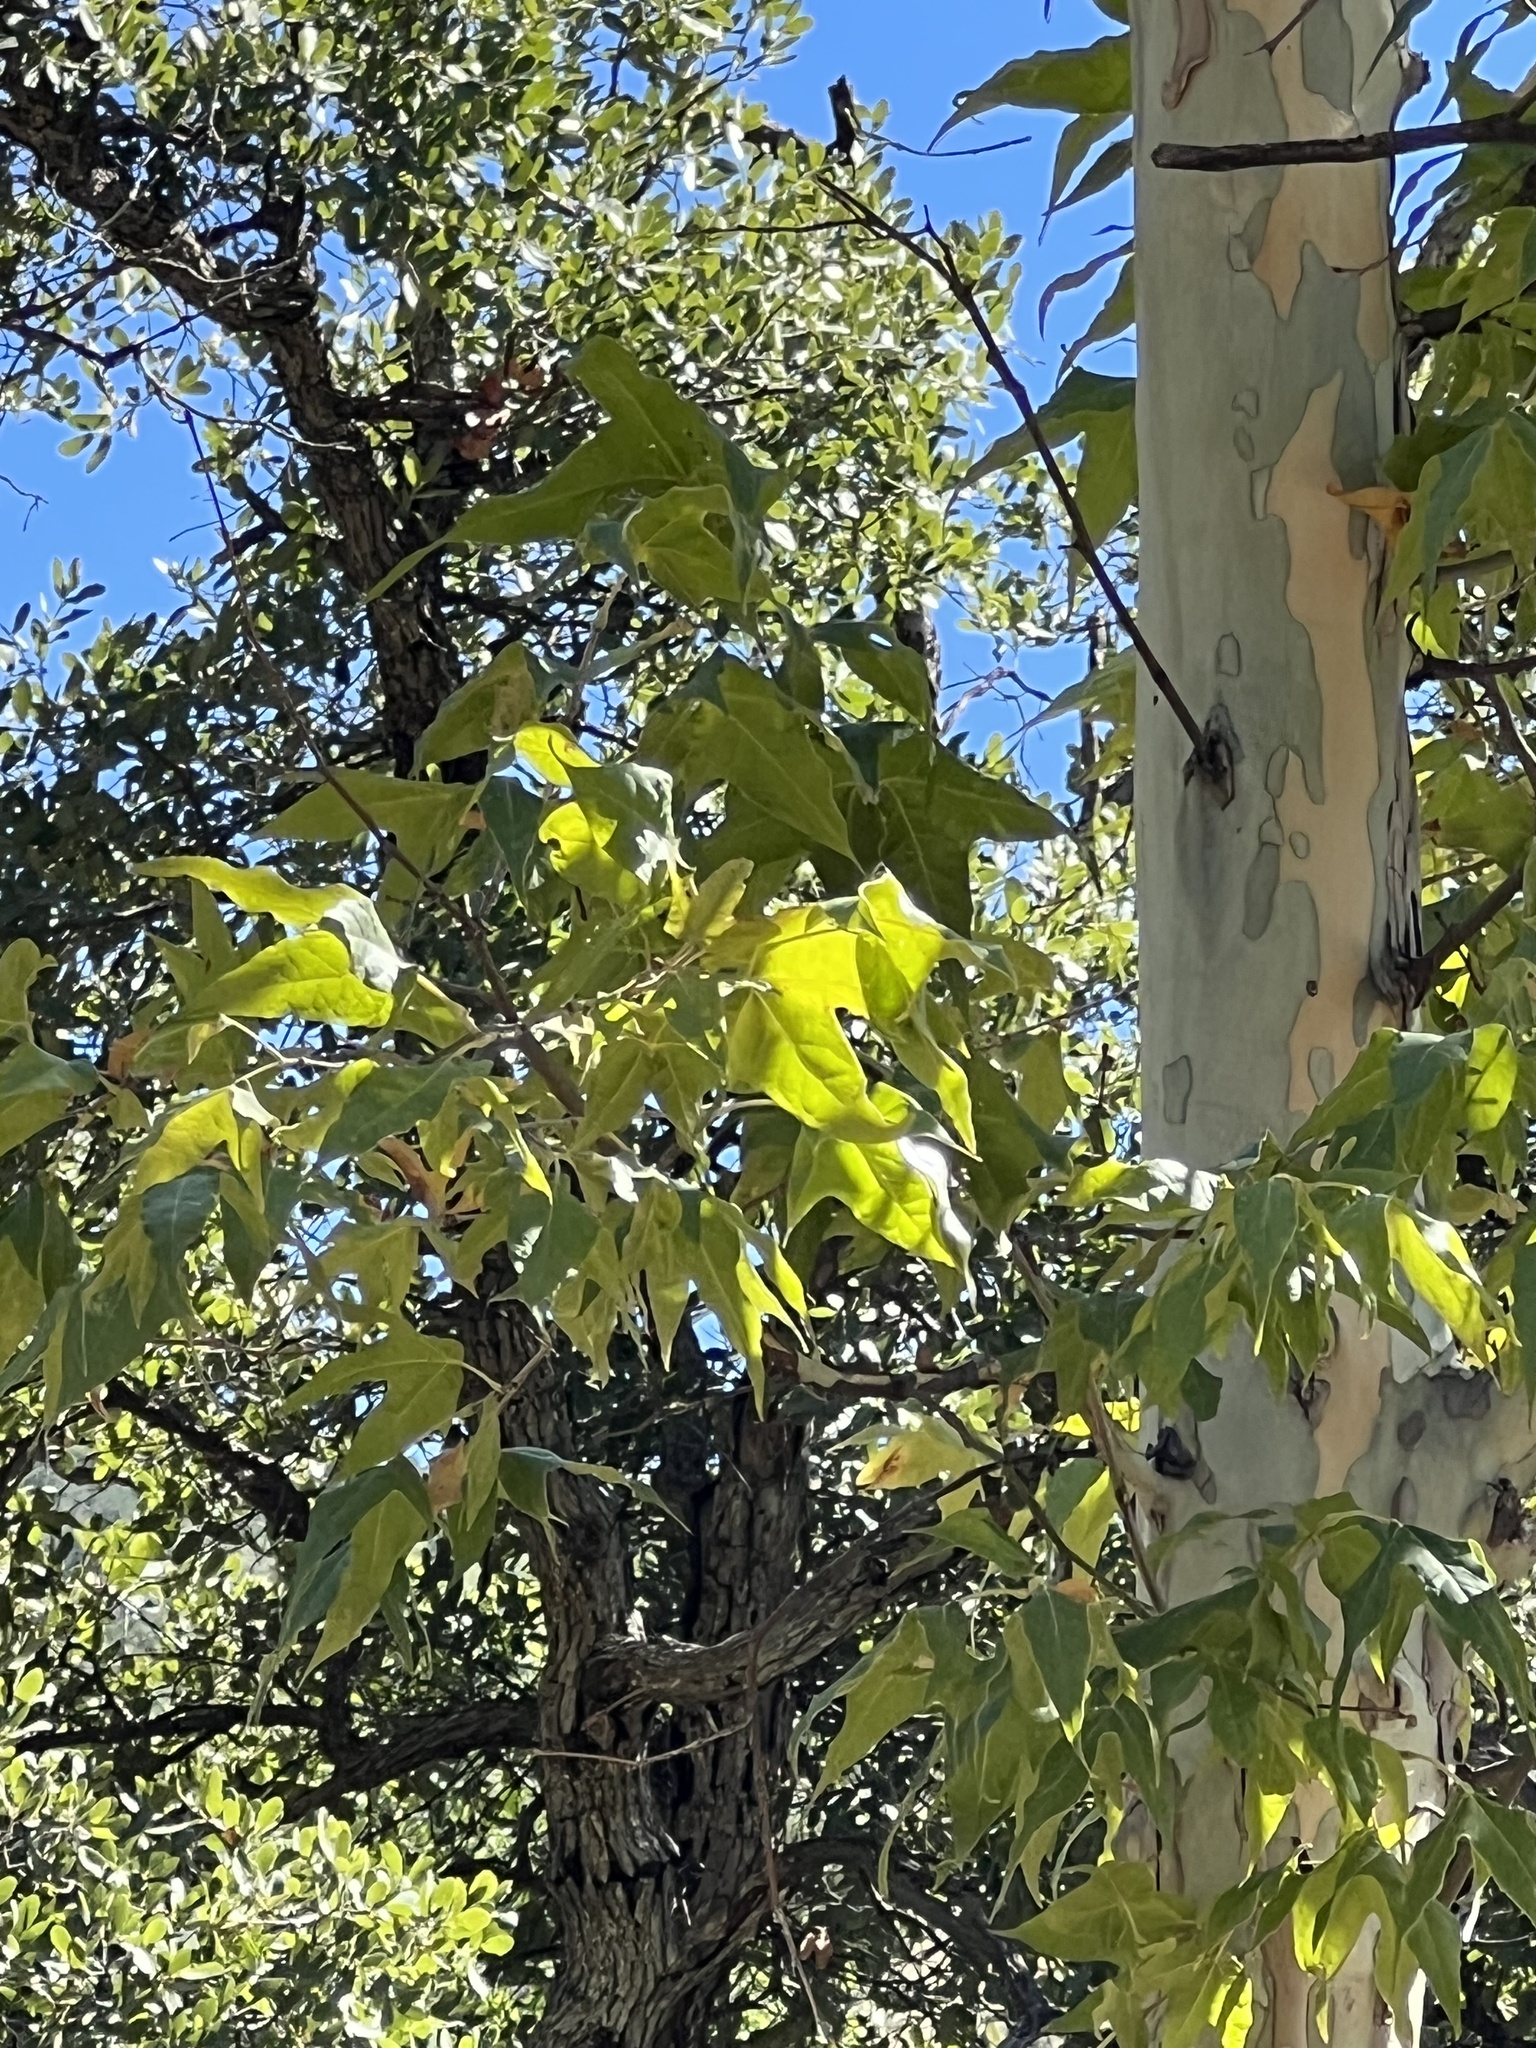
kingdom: Plantae
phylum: Tracheophyta
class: Magnoliopsida
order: Proteales
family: Platanaceae
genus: Platanus
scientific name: Platanus wrightii
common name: Arizona sycamore
